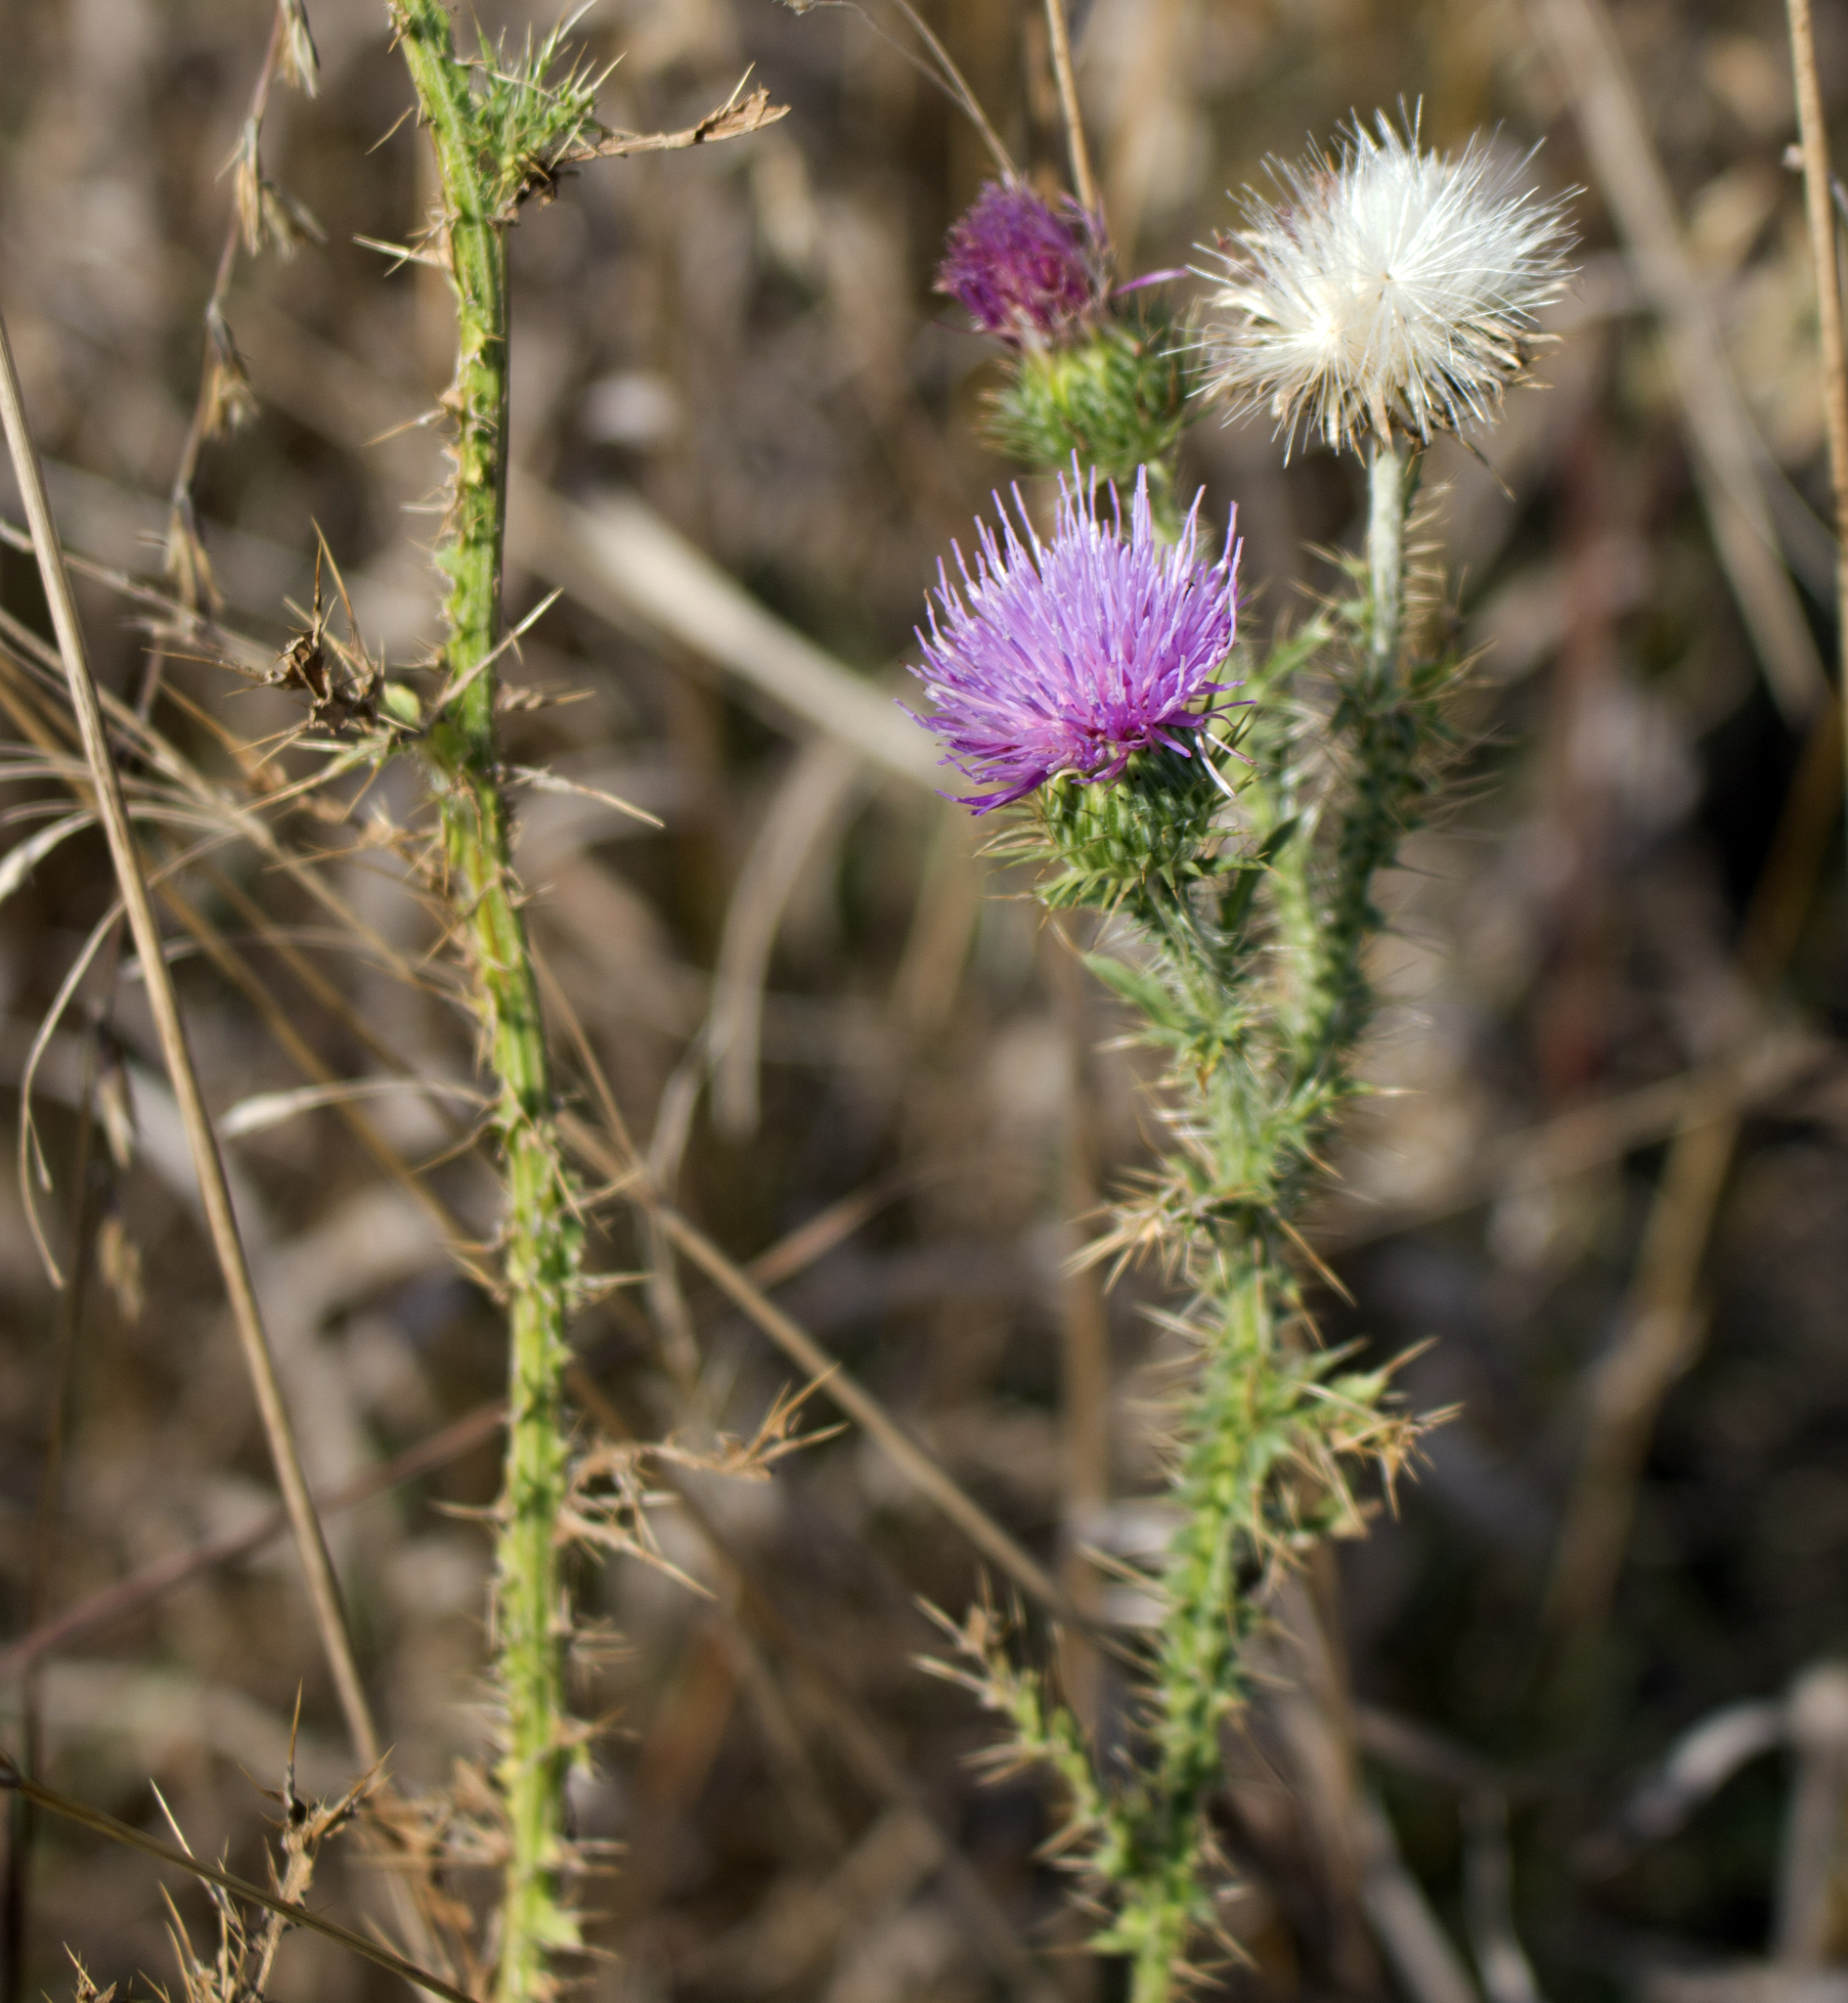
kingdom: Plantae
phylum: Tracheophyta
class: Magnoliopsida
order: Asterales
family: Asteraceae
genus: Carduus
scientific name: Carduus acanthoides
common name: Plumeless thistle
